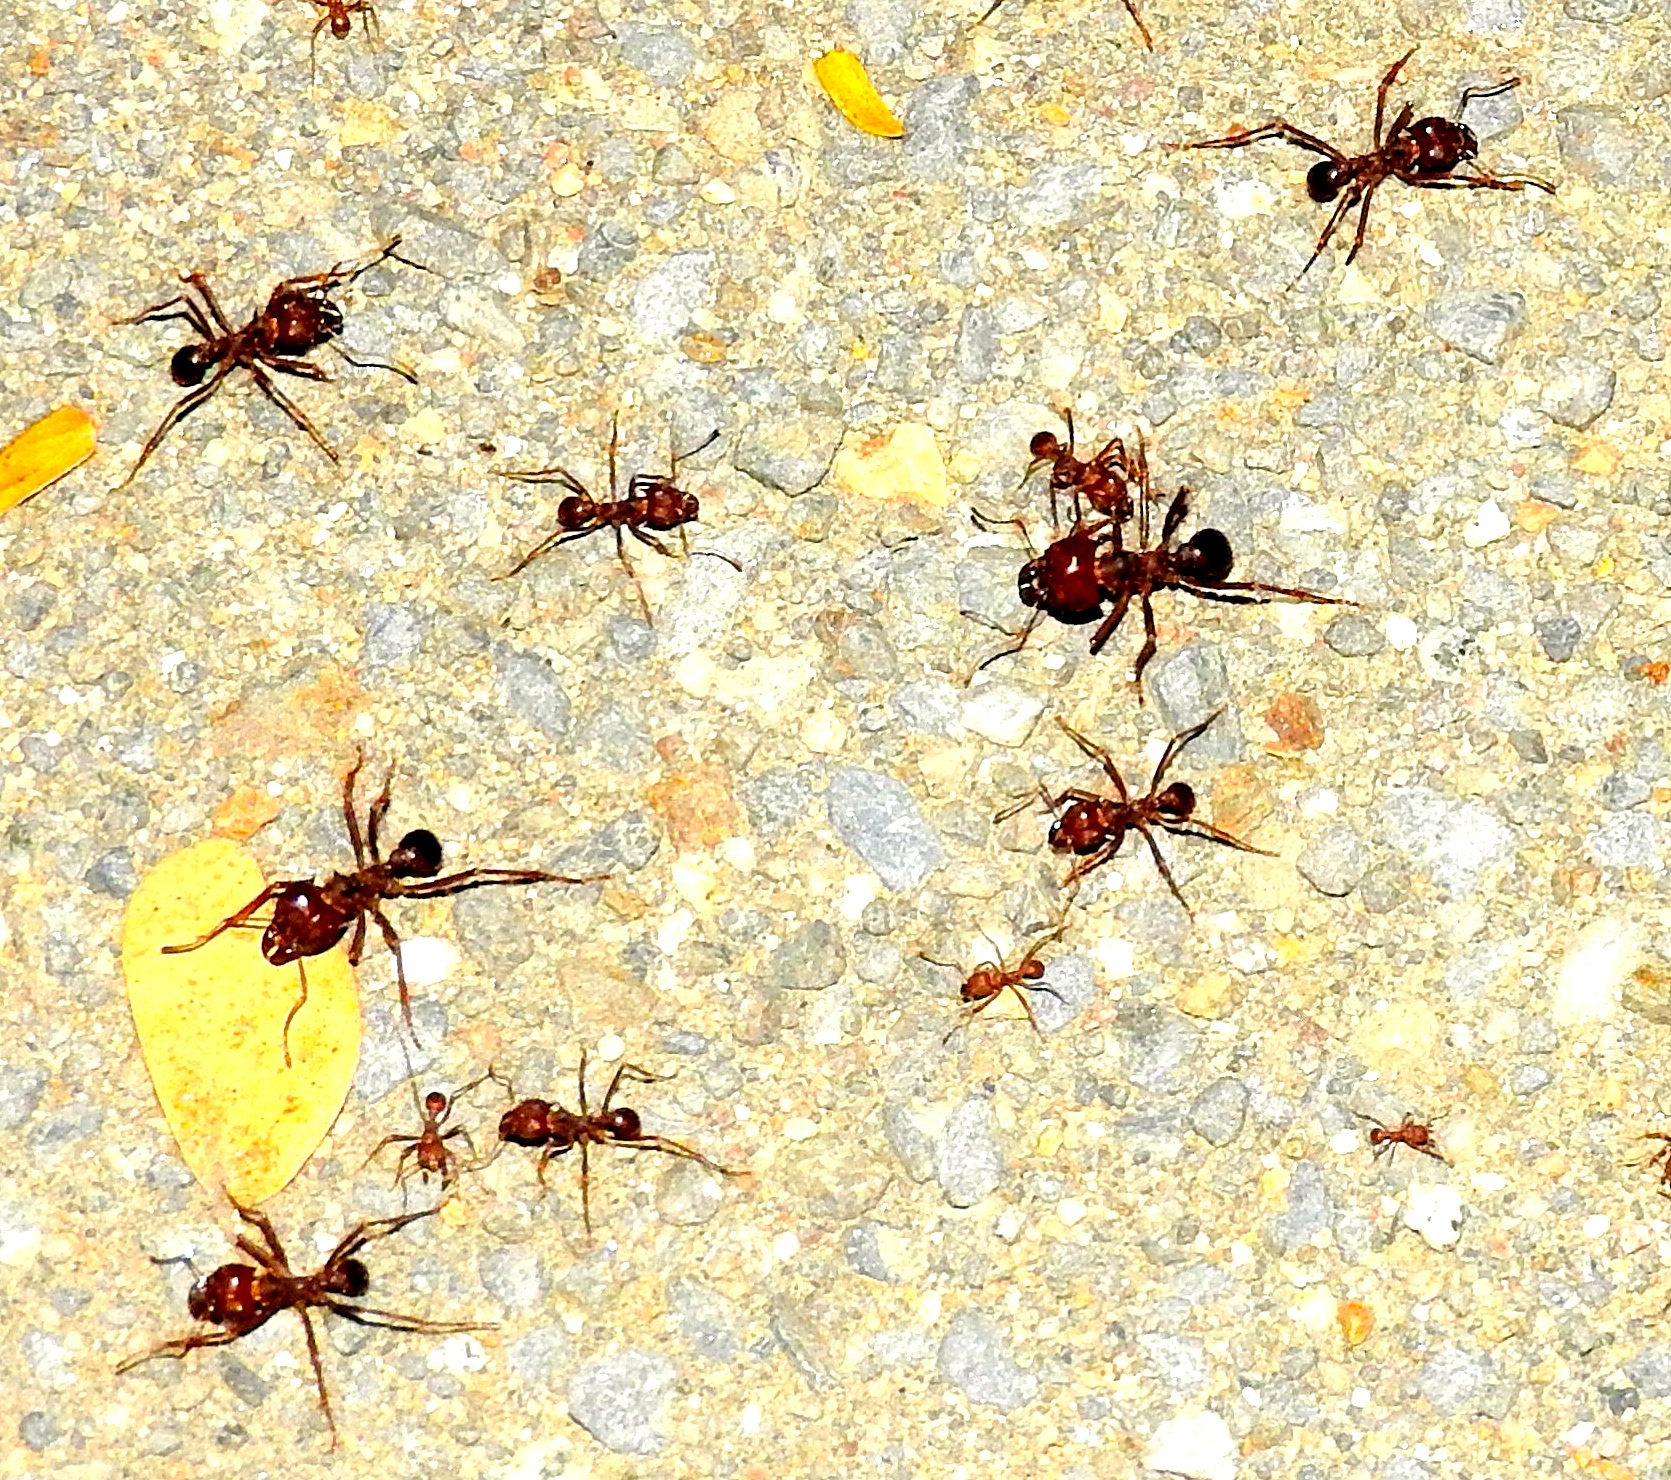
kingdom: Animalia
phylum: Arthropoda
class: Insecta
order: Hymenoptera
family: Formicidae
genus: Atta
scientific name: Atta mexicana
